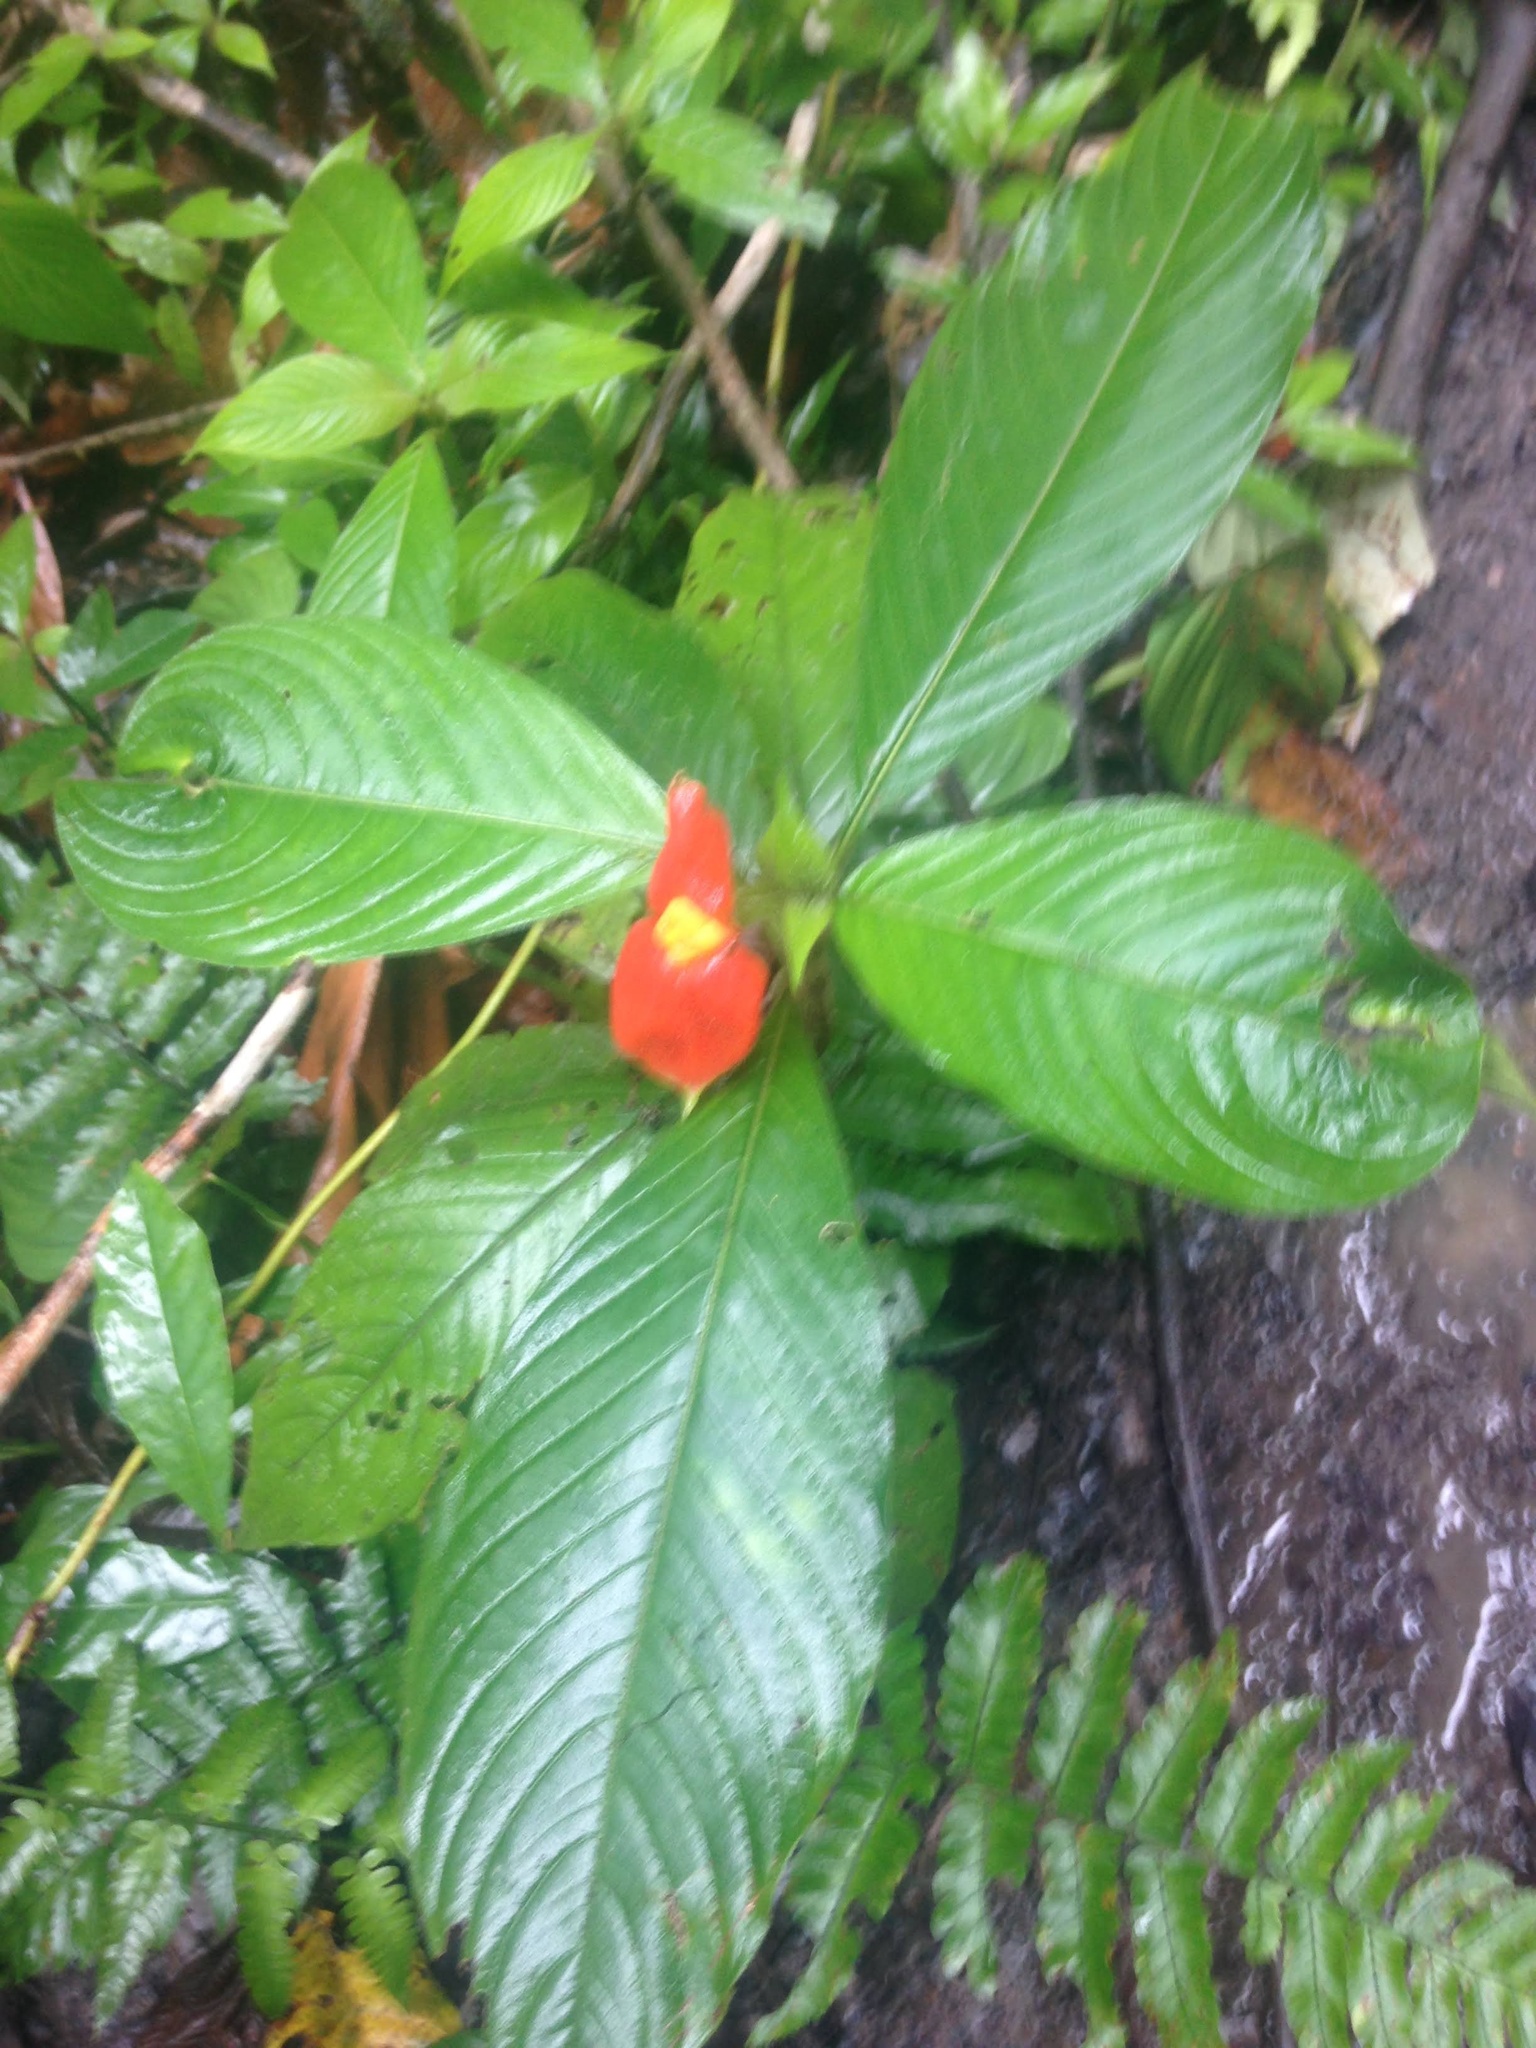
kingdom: Plantae
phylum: Tracheophyta
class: Magnoliopsida
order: Gentianales
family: Rubiaceae
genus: Palicourea
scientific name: Palicourea tomentosa
